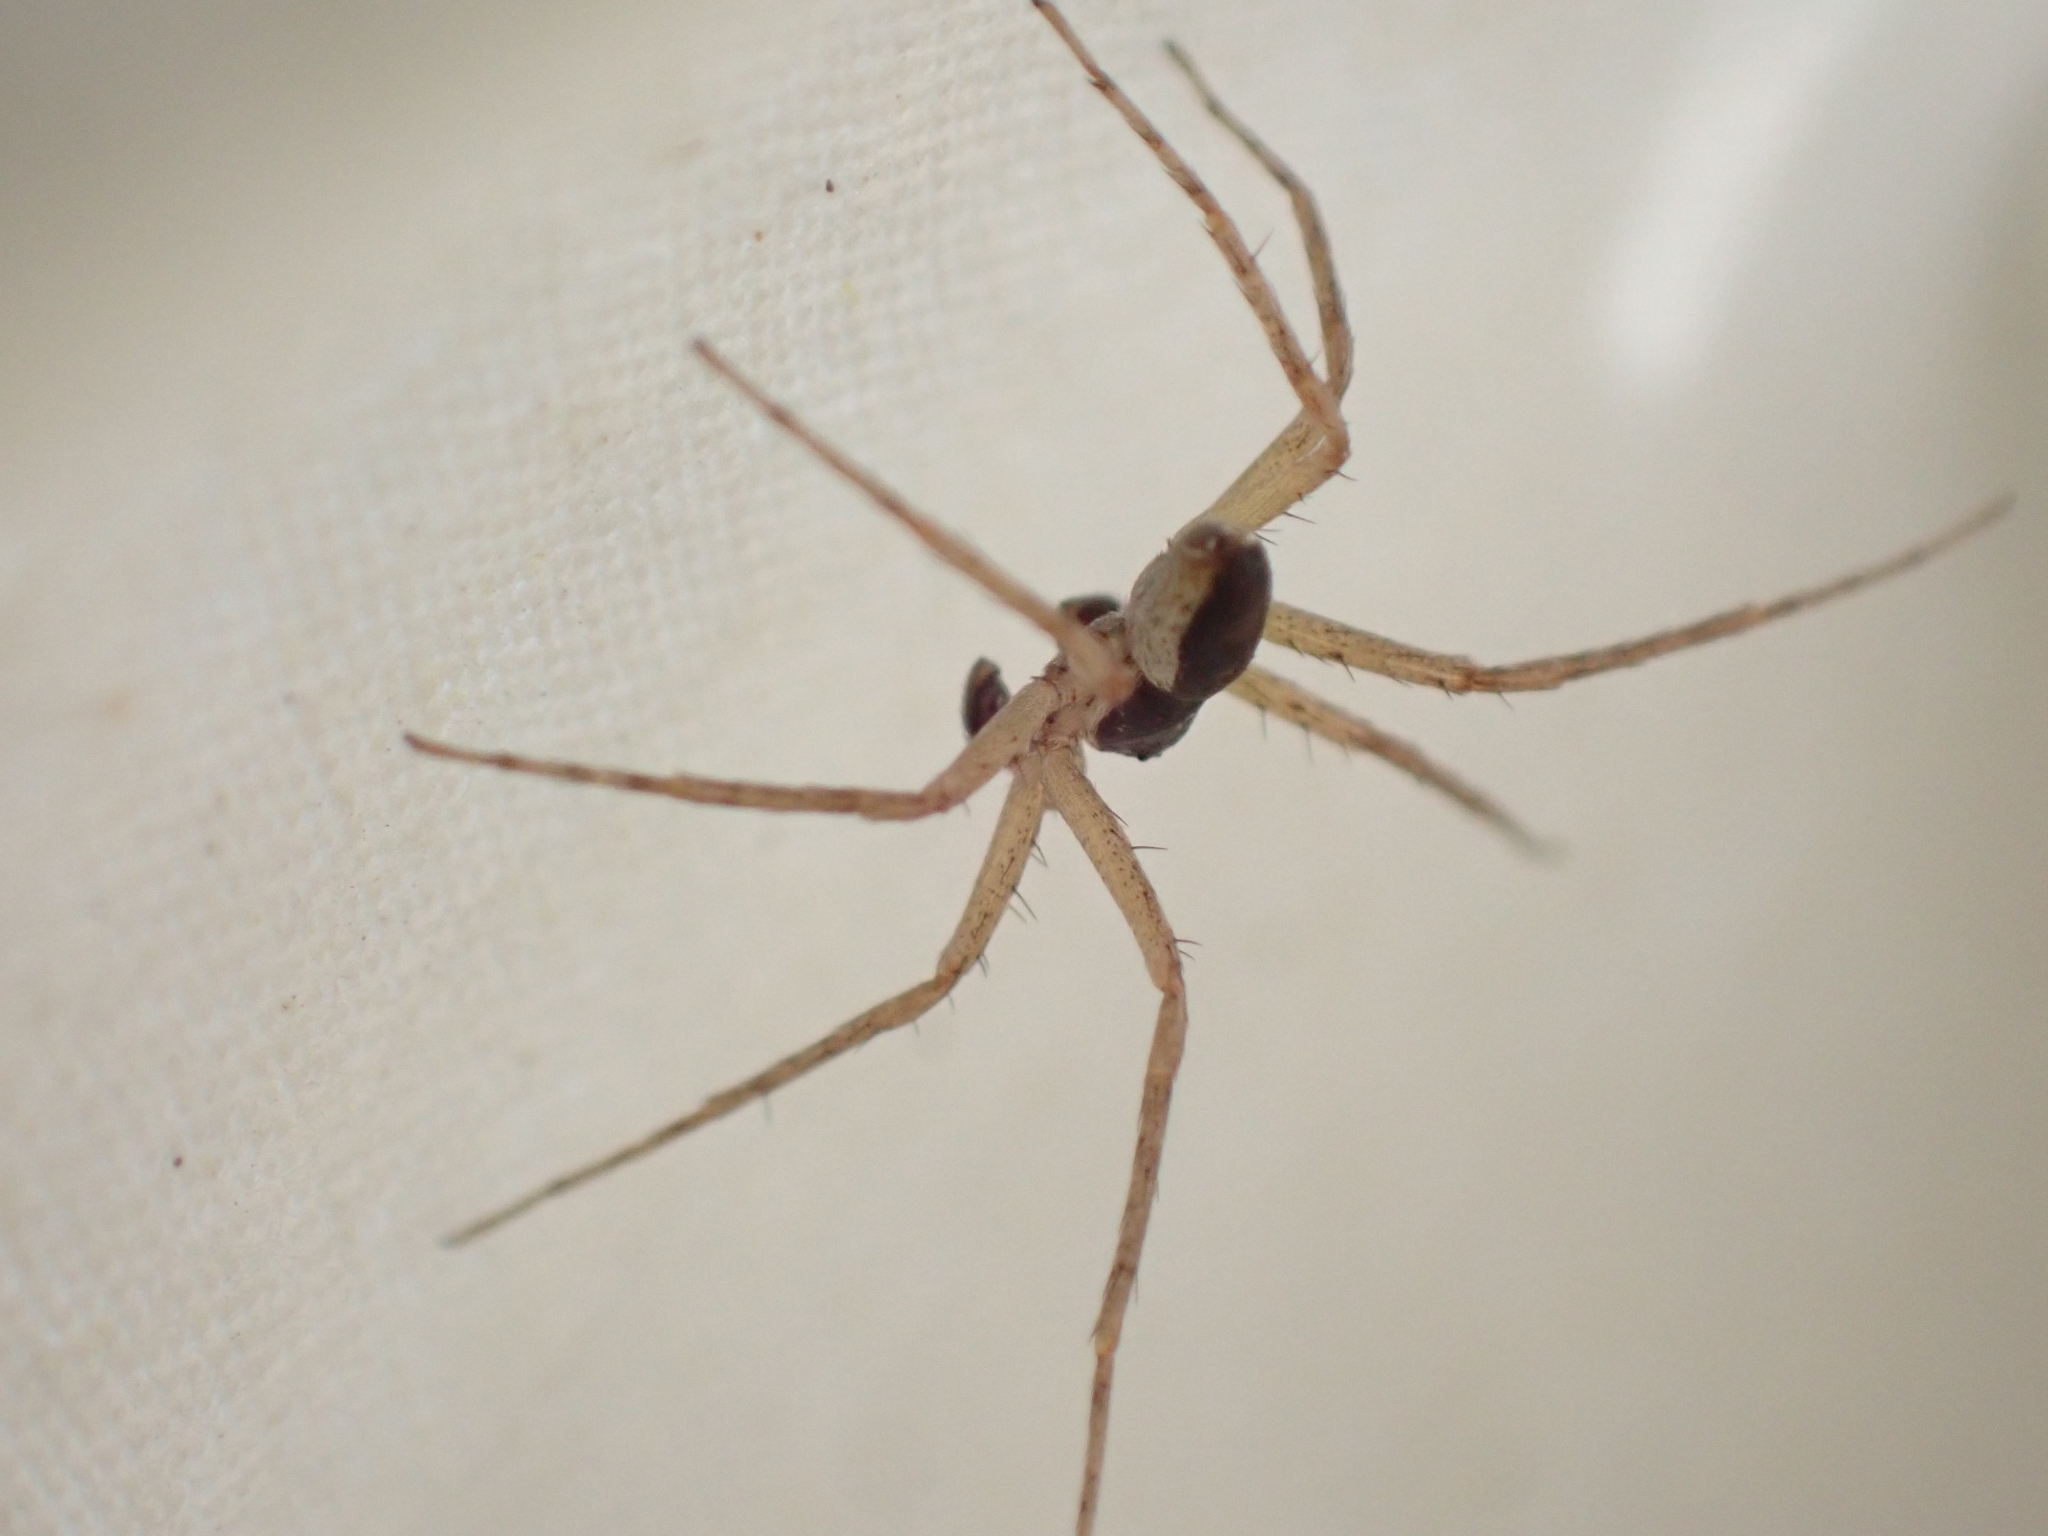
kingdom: Animalia
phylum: Arthropoda
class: Arachnida
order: Araneae
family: Philodromidae
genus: Philodromus
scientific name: Philodromus dispar
